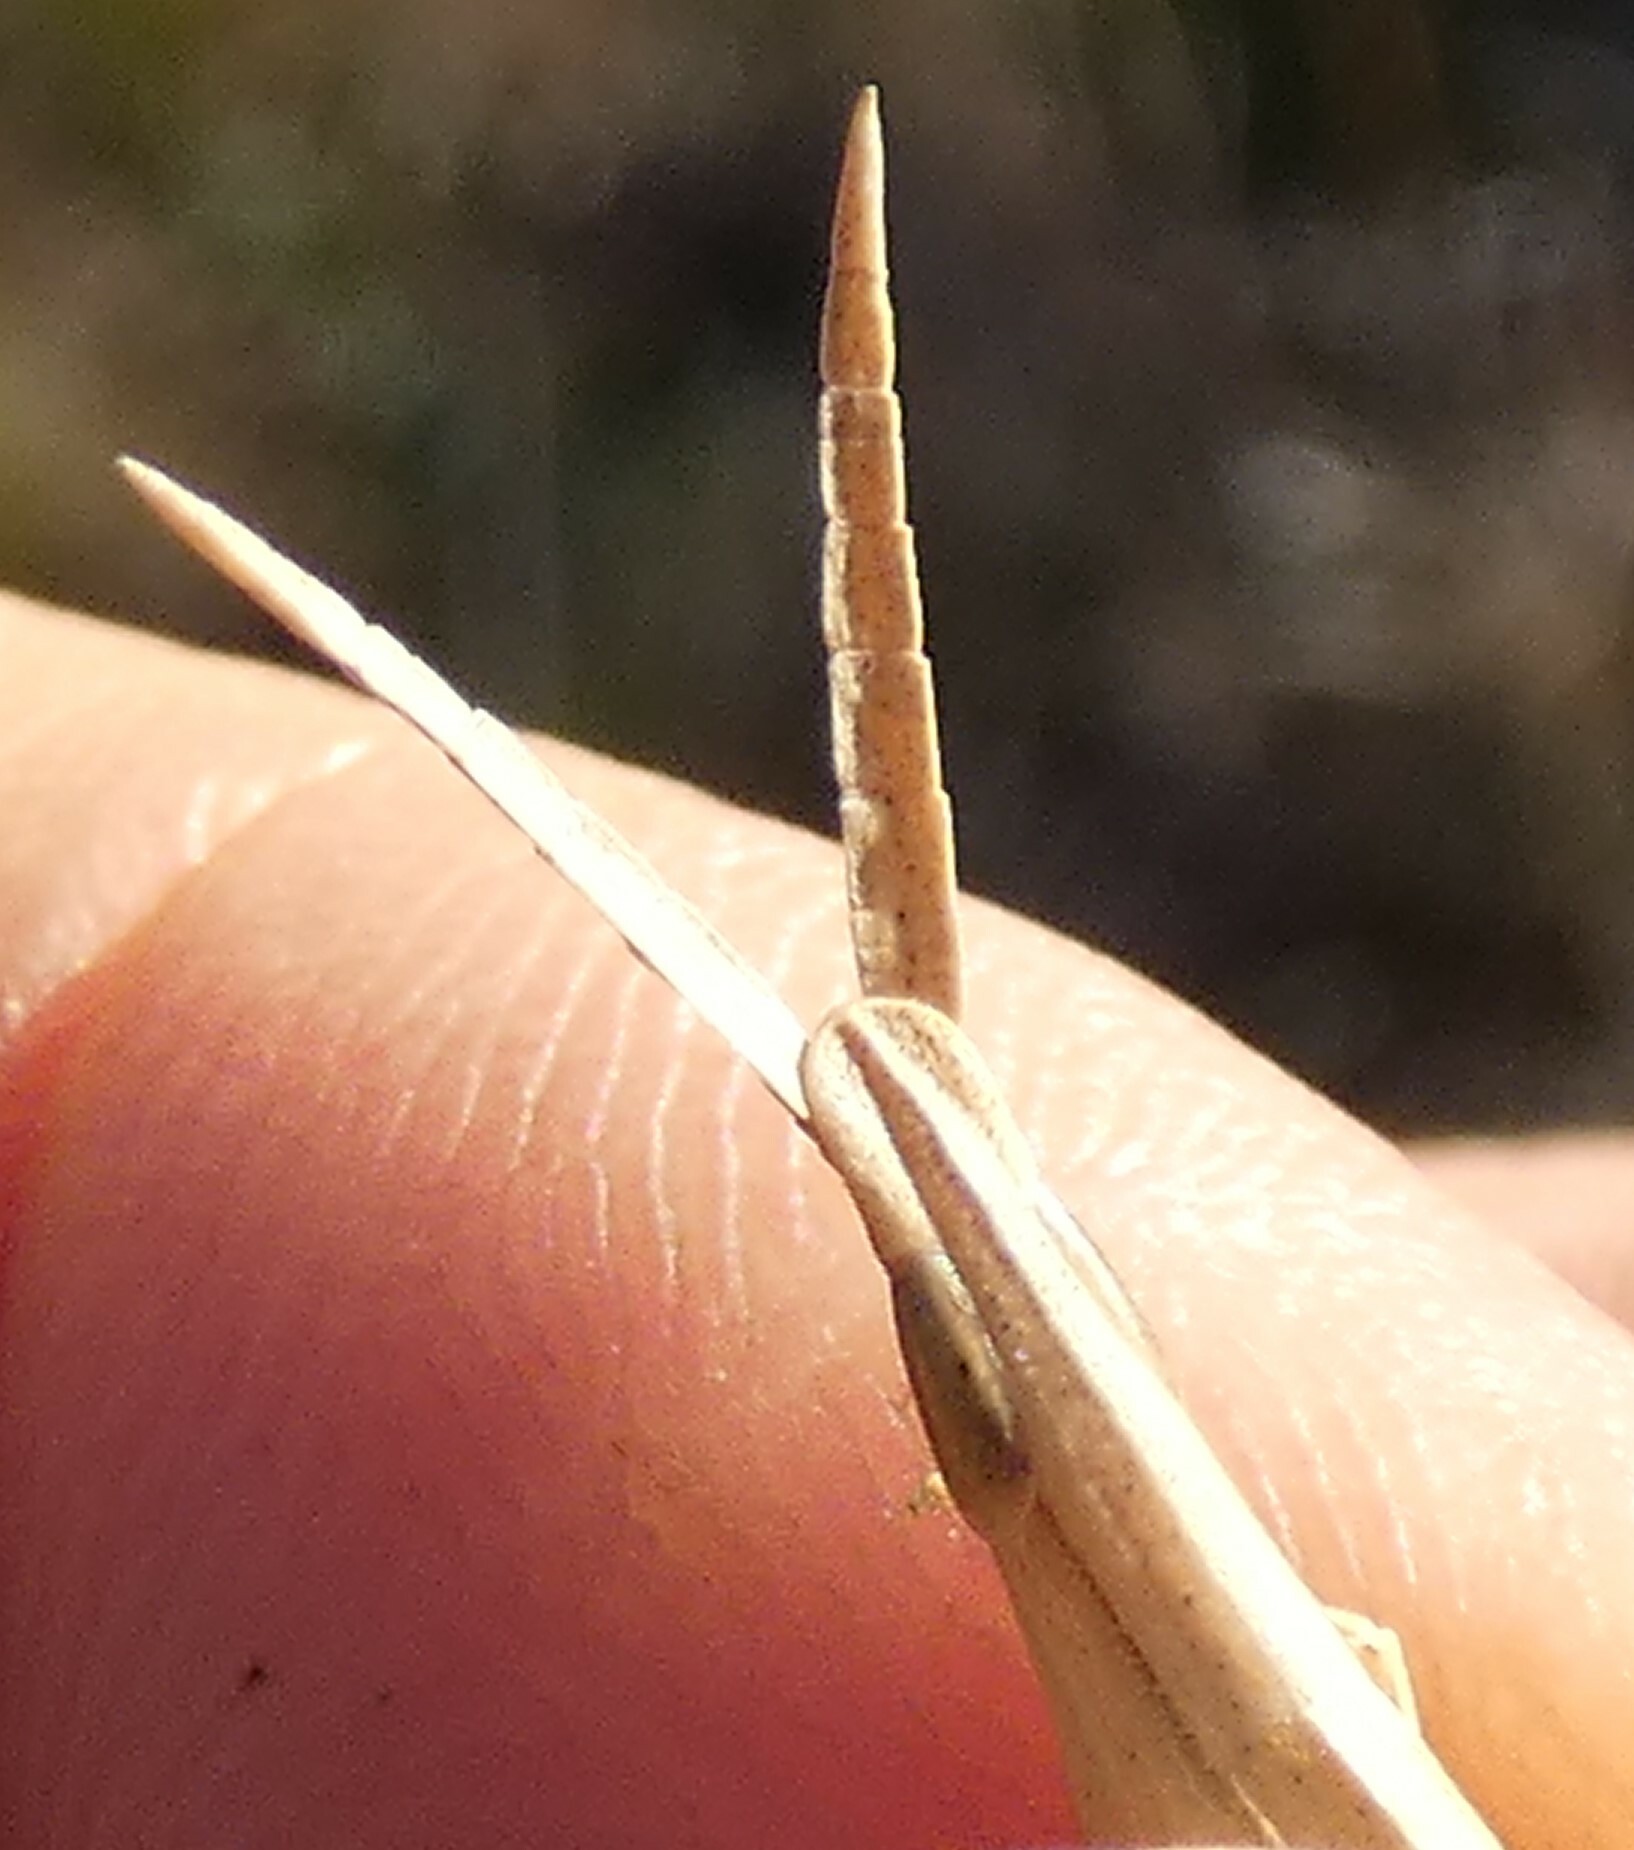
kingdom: Animalia
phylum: Arthropoda
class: Insecta
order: Orthoptera
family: Acrididae
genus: Achurum
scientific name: Achurum carinatum
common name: Long-headed toothpick grasshopper
